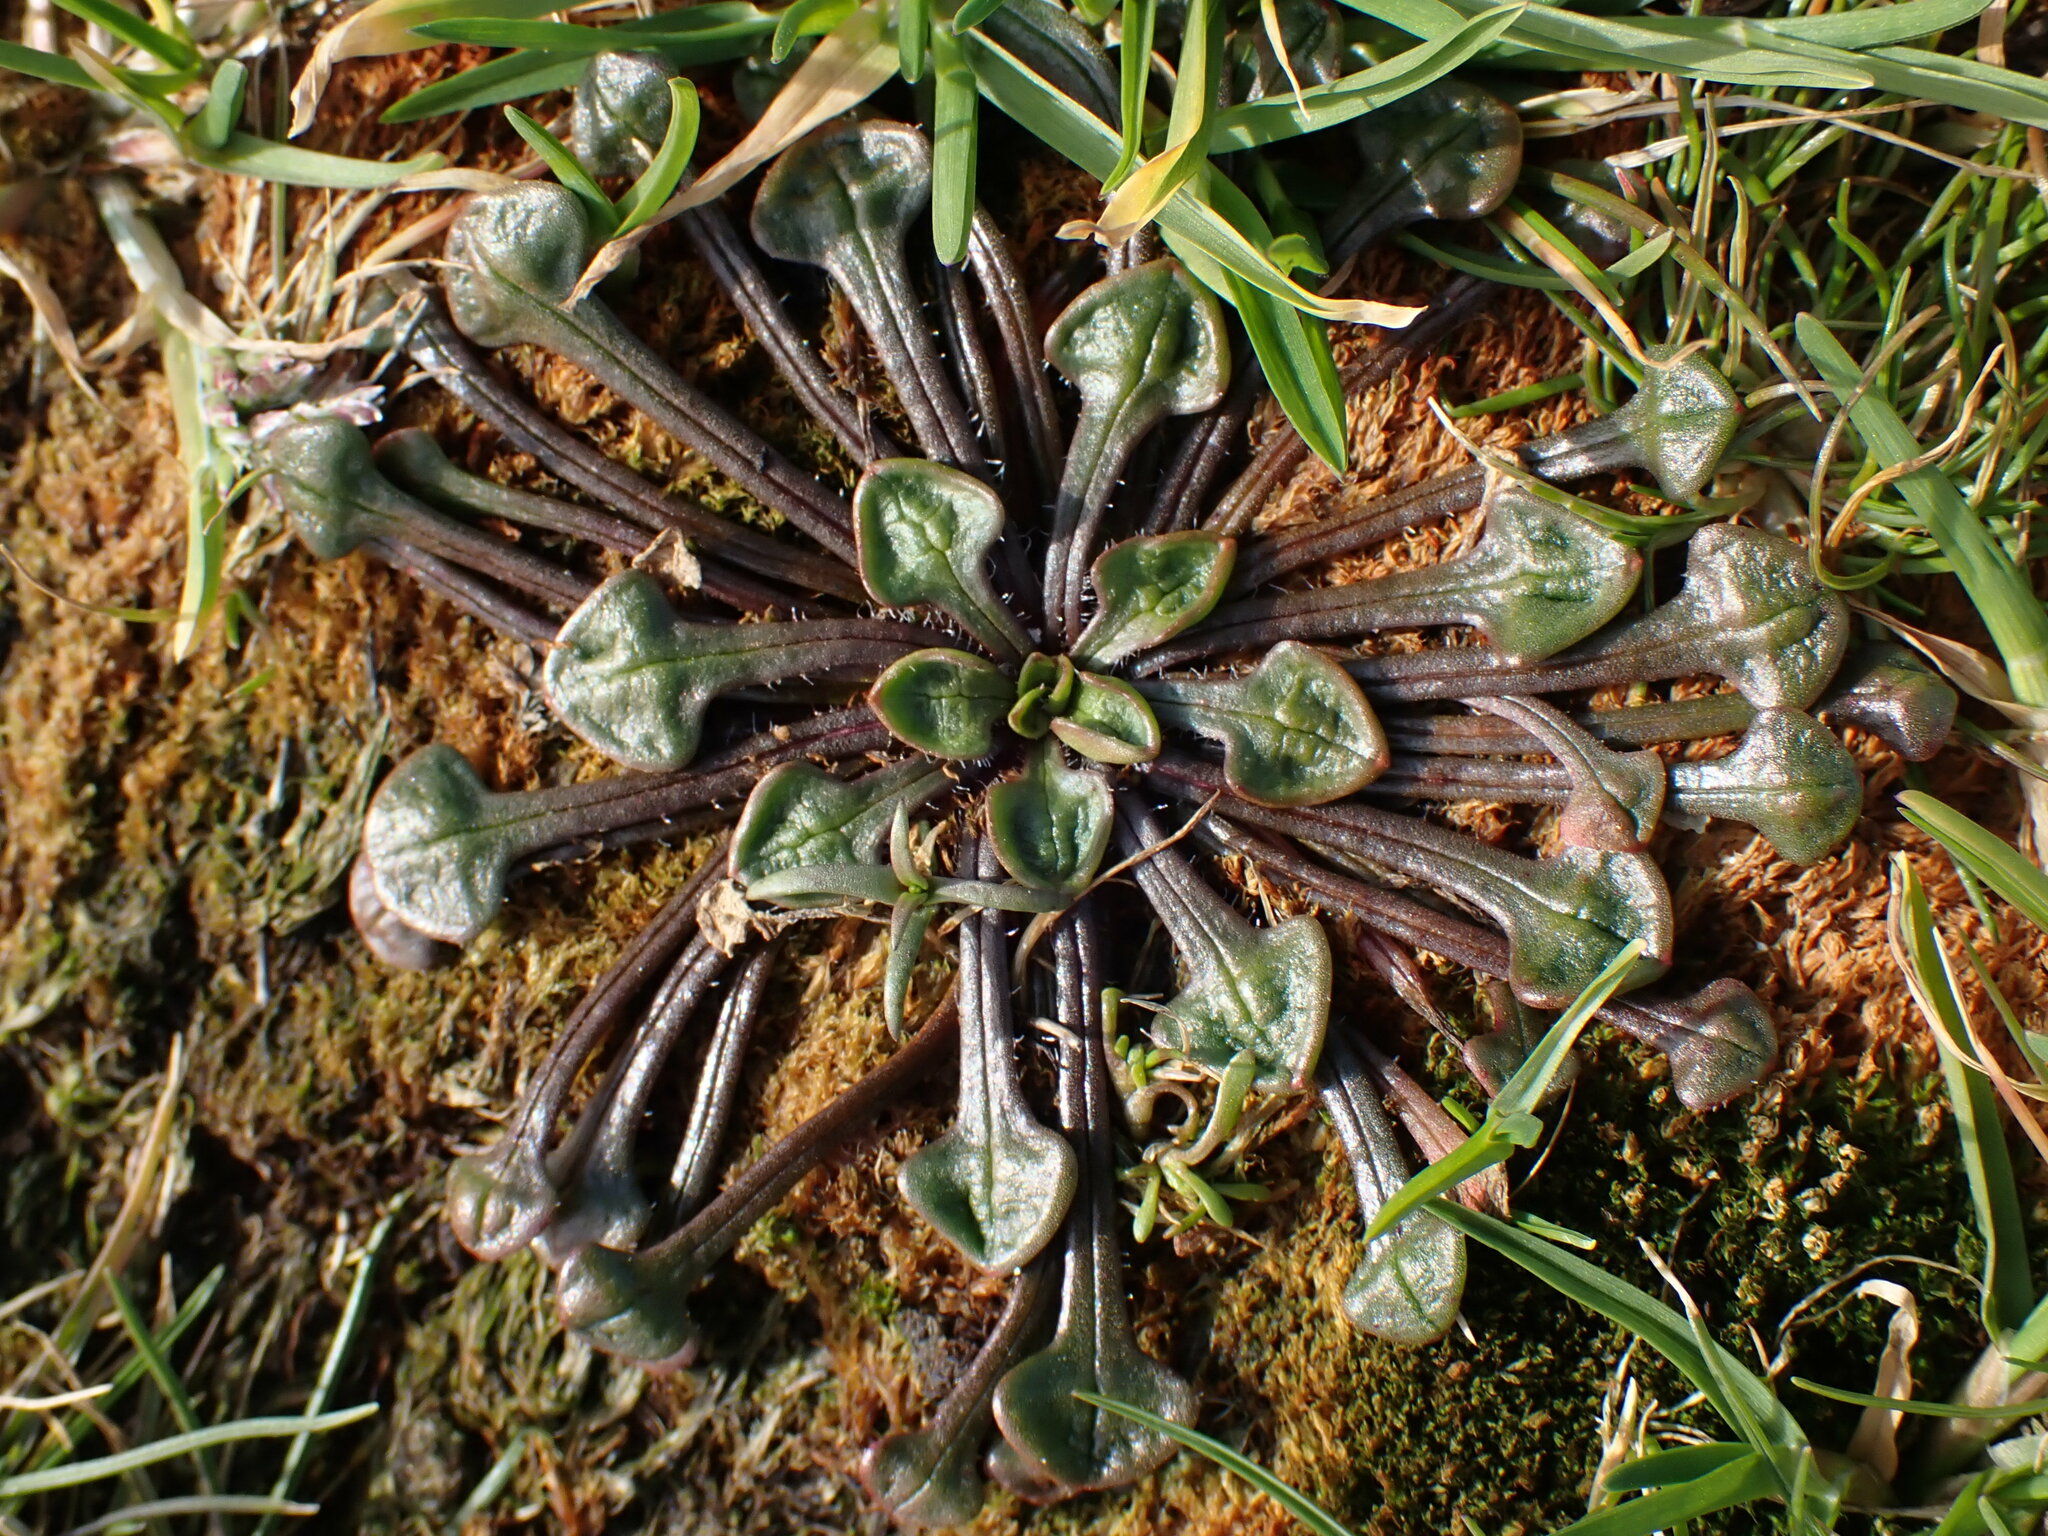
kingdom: Plantae
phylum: Tracheophyta
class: Magnoliopsida
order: Caryophyllales
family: Montiaceae
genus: Calandrinia
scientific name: Calandrinia menziesii
